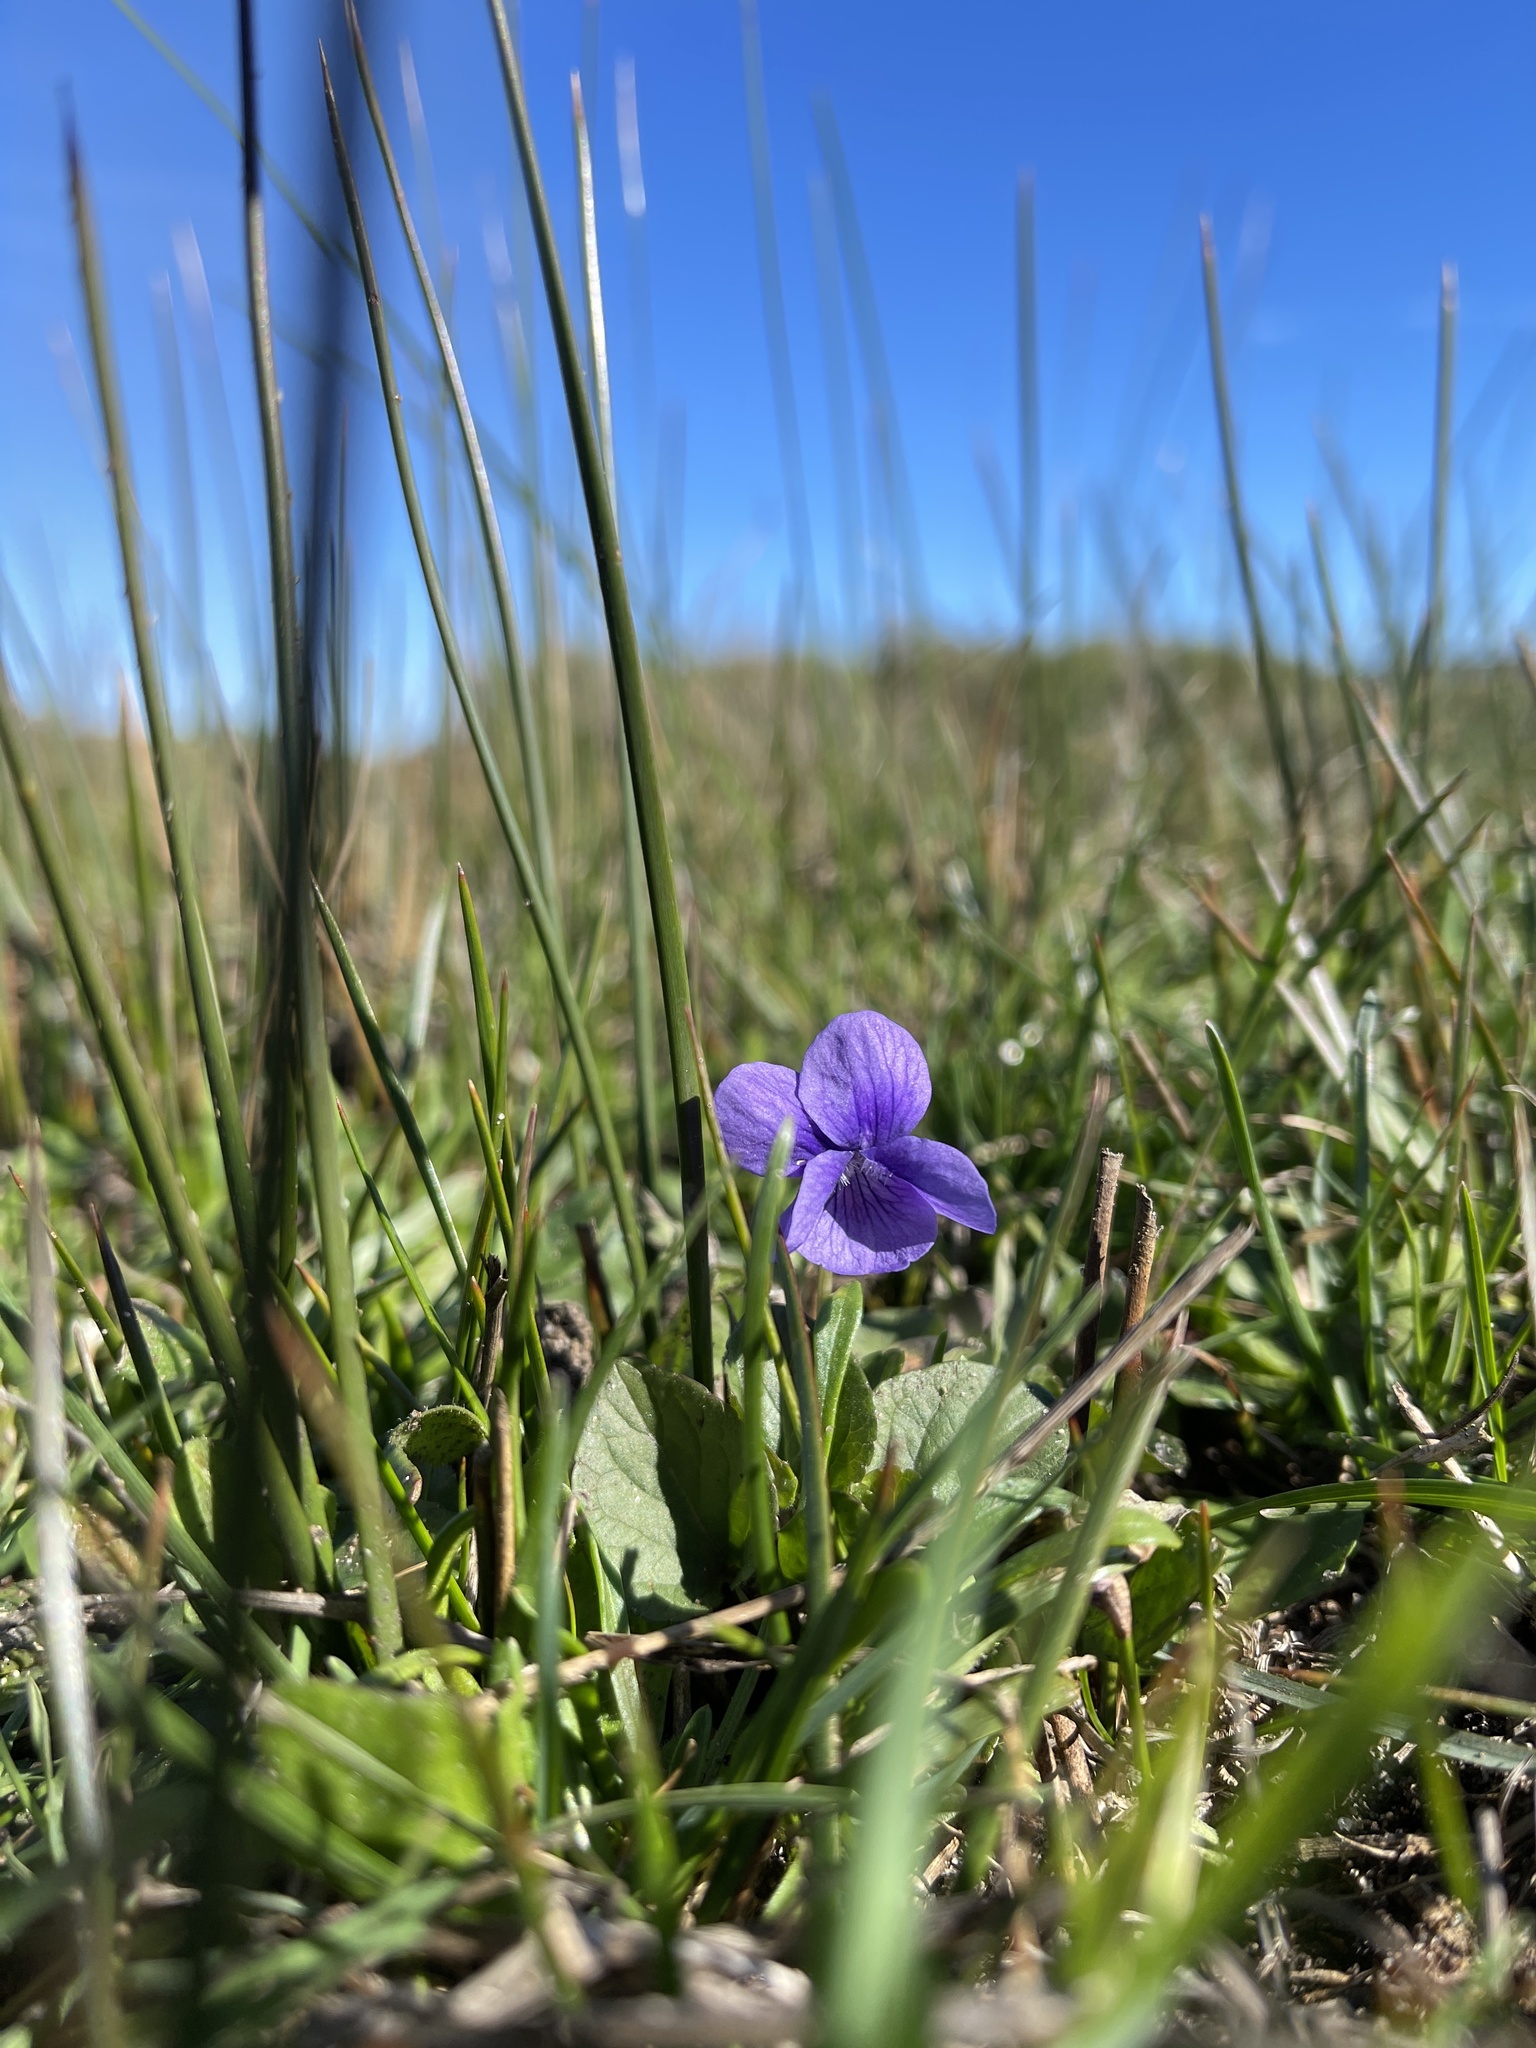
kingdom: Plantae
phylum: Tracheophyta
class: Magnoliopsida
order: Malpighiales
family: Violaceae
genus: Viola
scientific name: Viola adunca
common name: Sand violet
